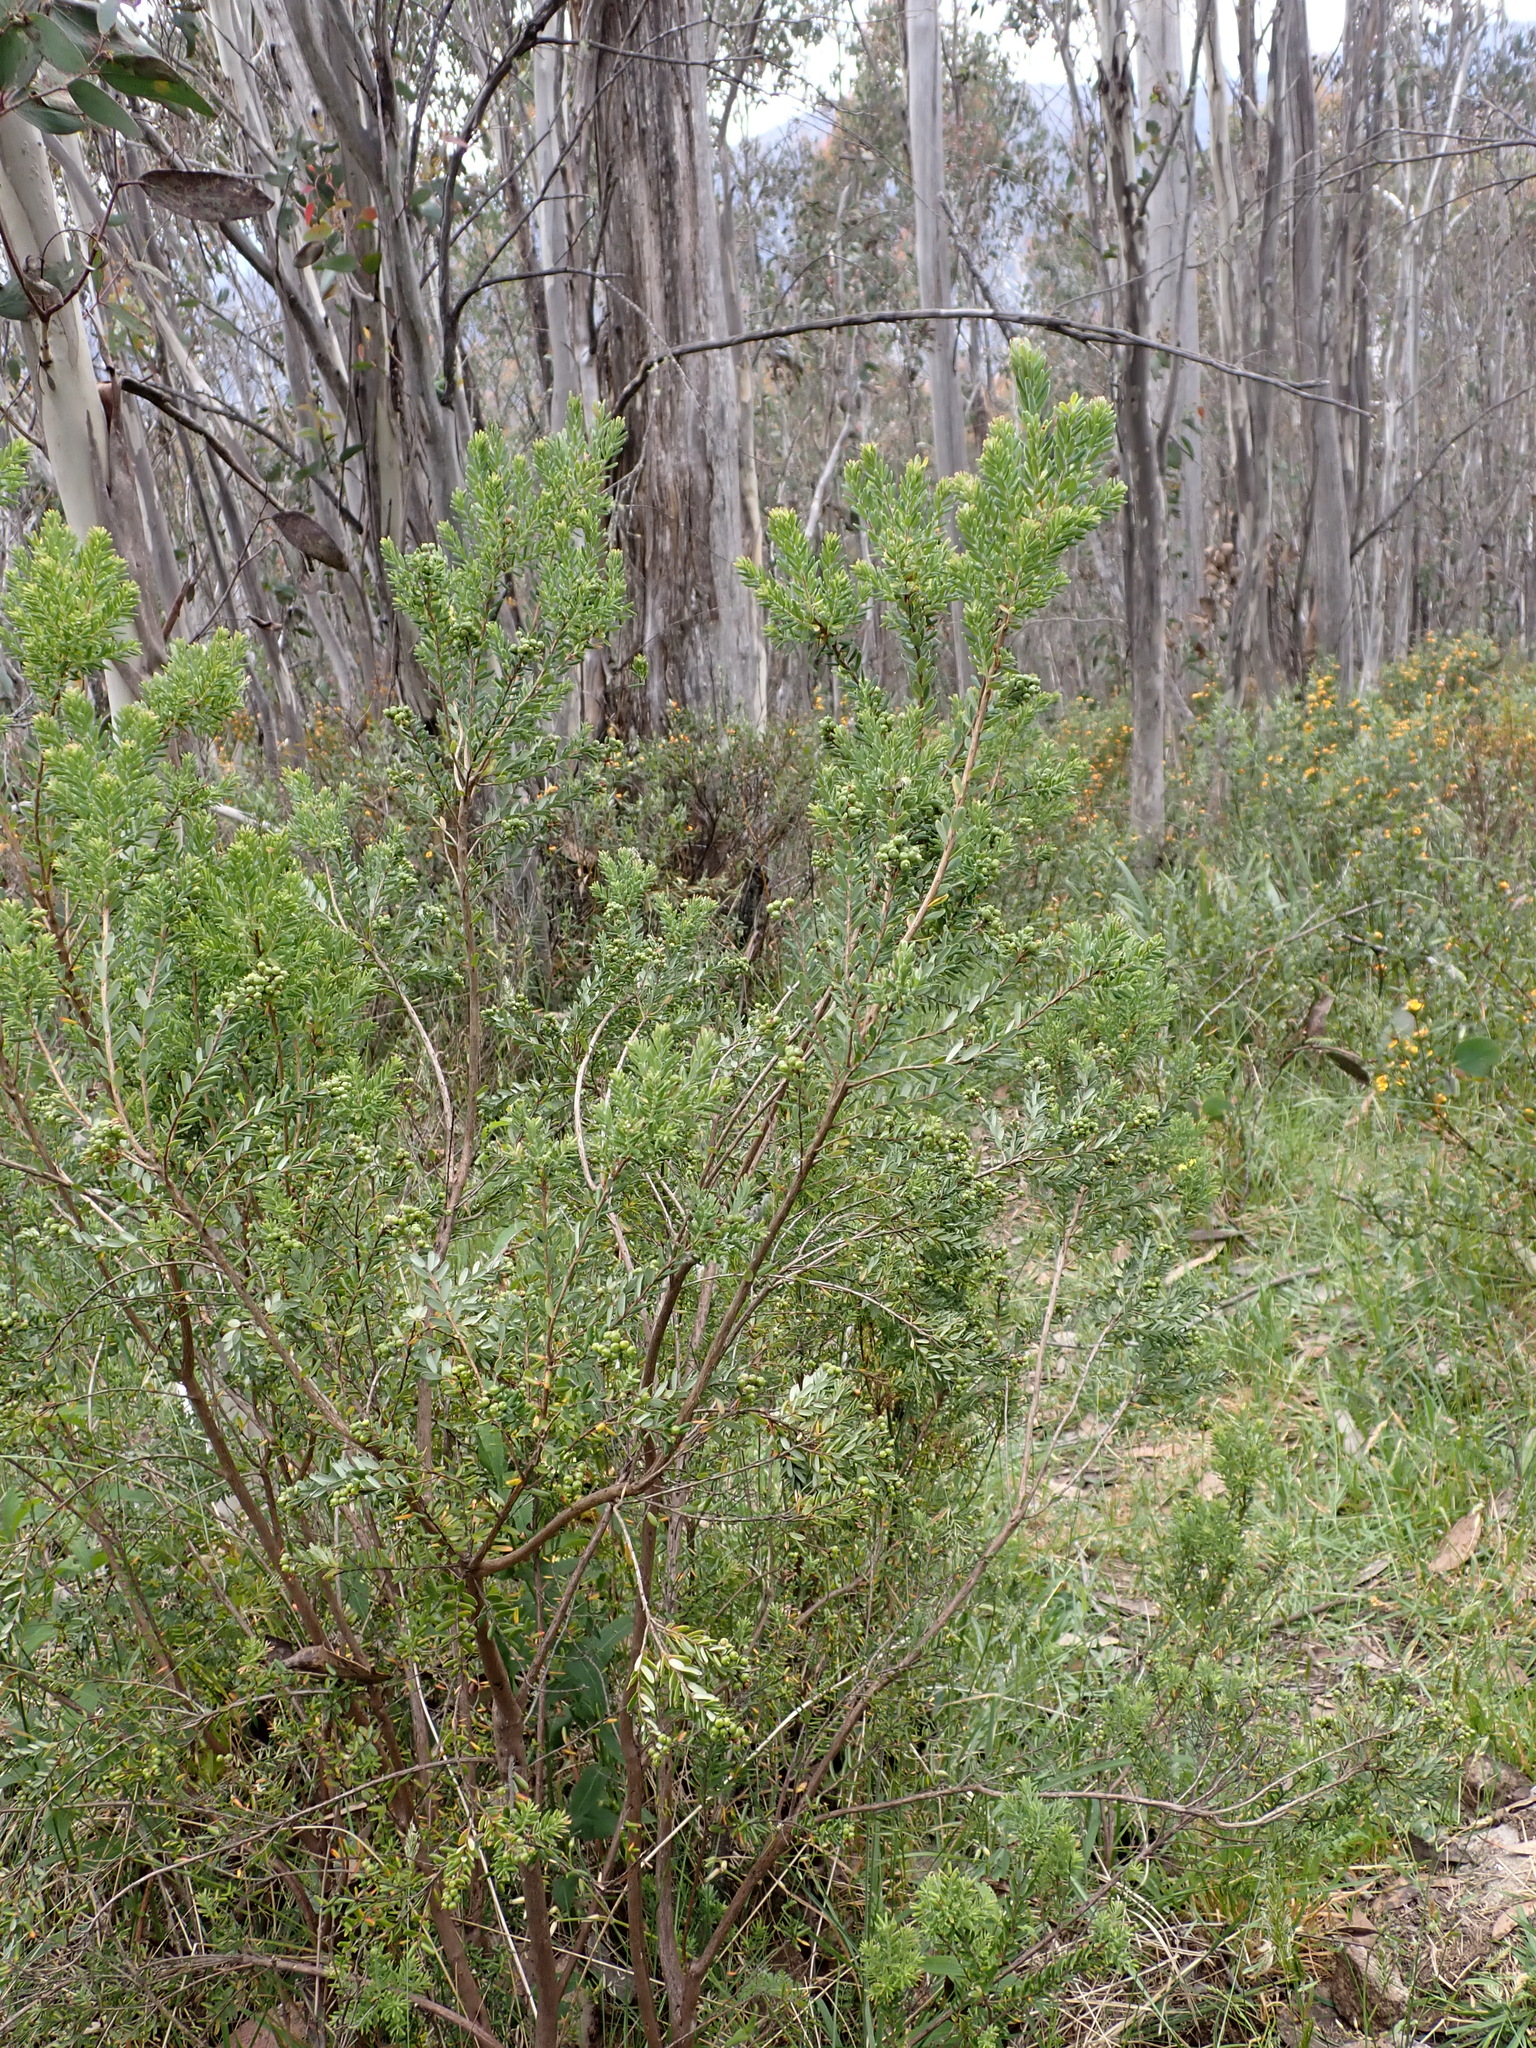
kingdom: Plantae
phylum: Tracheophyta
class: Magnoliopsida
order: Ericales
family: Ericaceae
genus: Acrothamnus
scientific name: Acrothamnus hookeri
